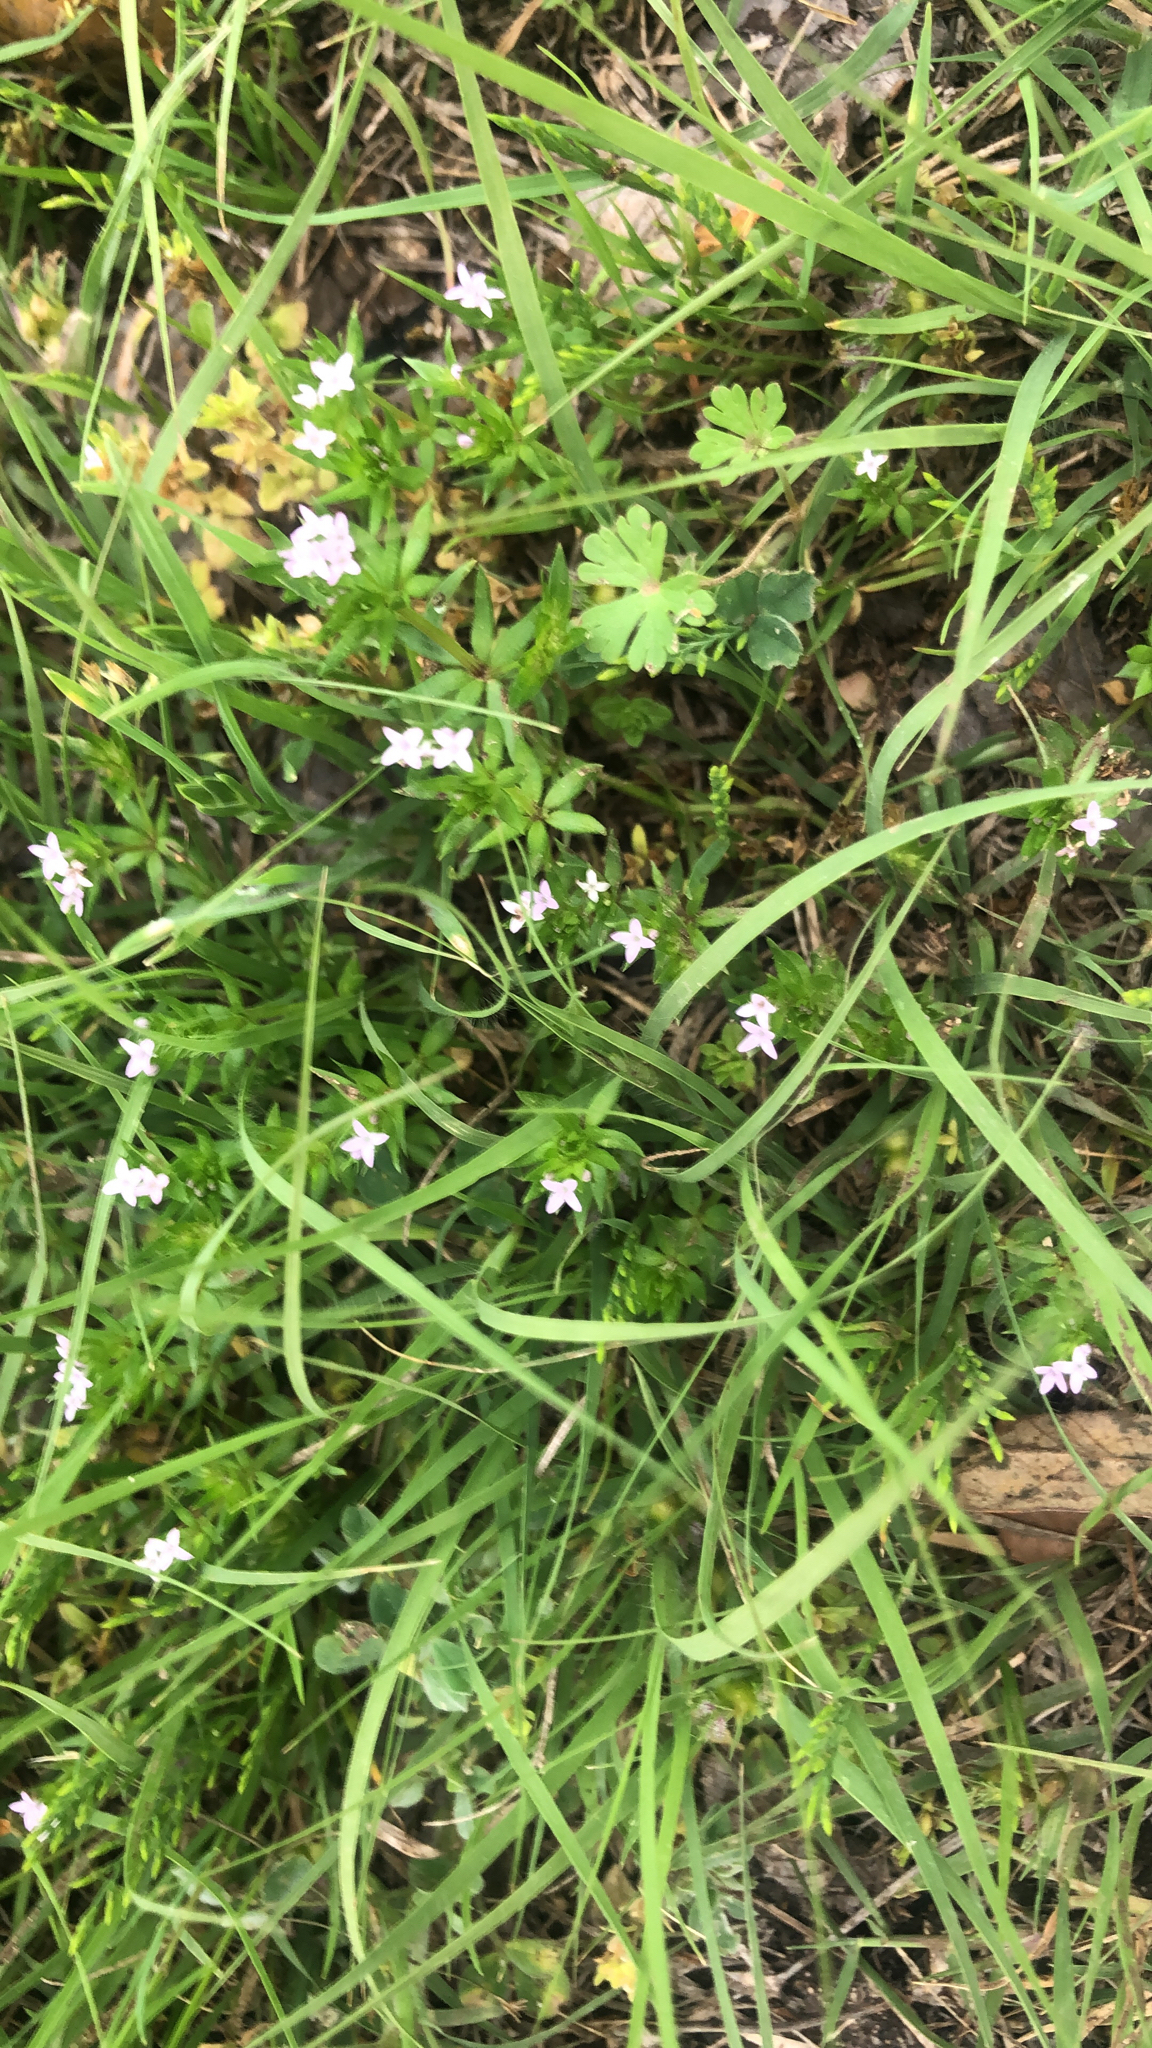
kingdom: Plantae
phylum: Tracheophyta
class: Magnoliopsida
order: Gentianales
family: Rubiaceae
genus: Sherardia
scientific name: Sherardia arvensis
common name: Field madder
